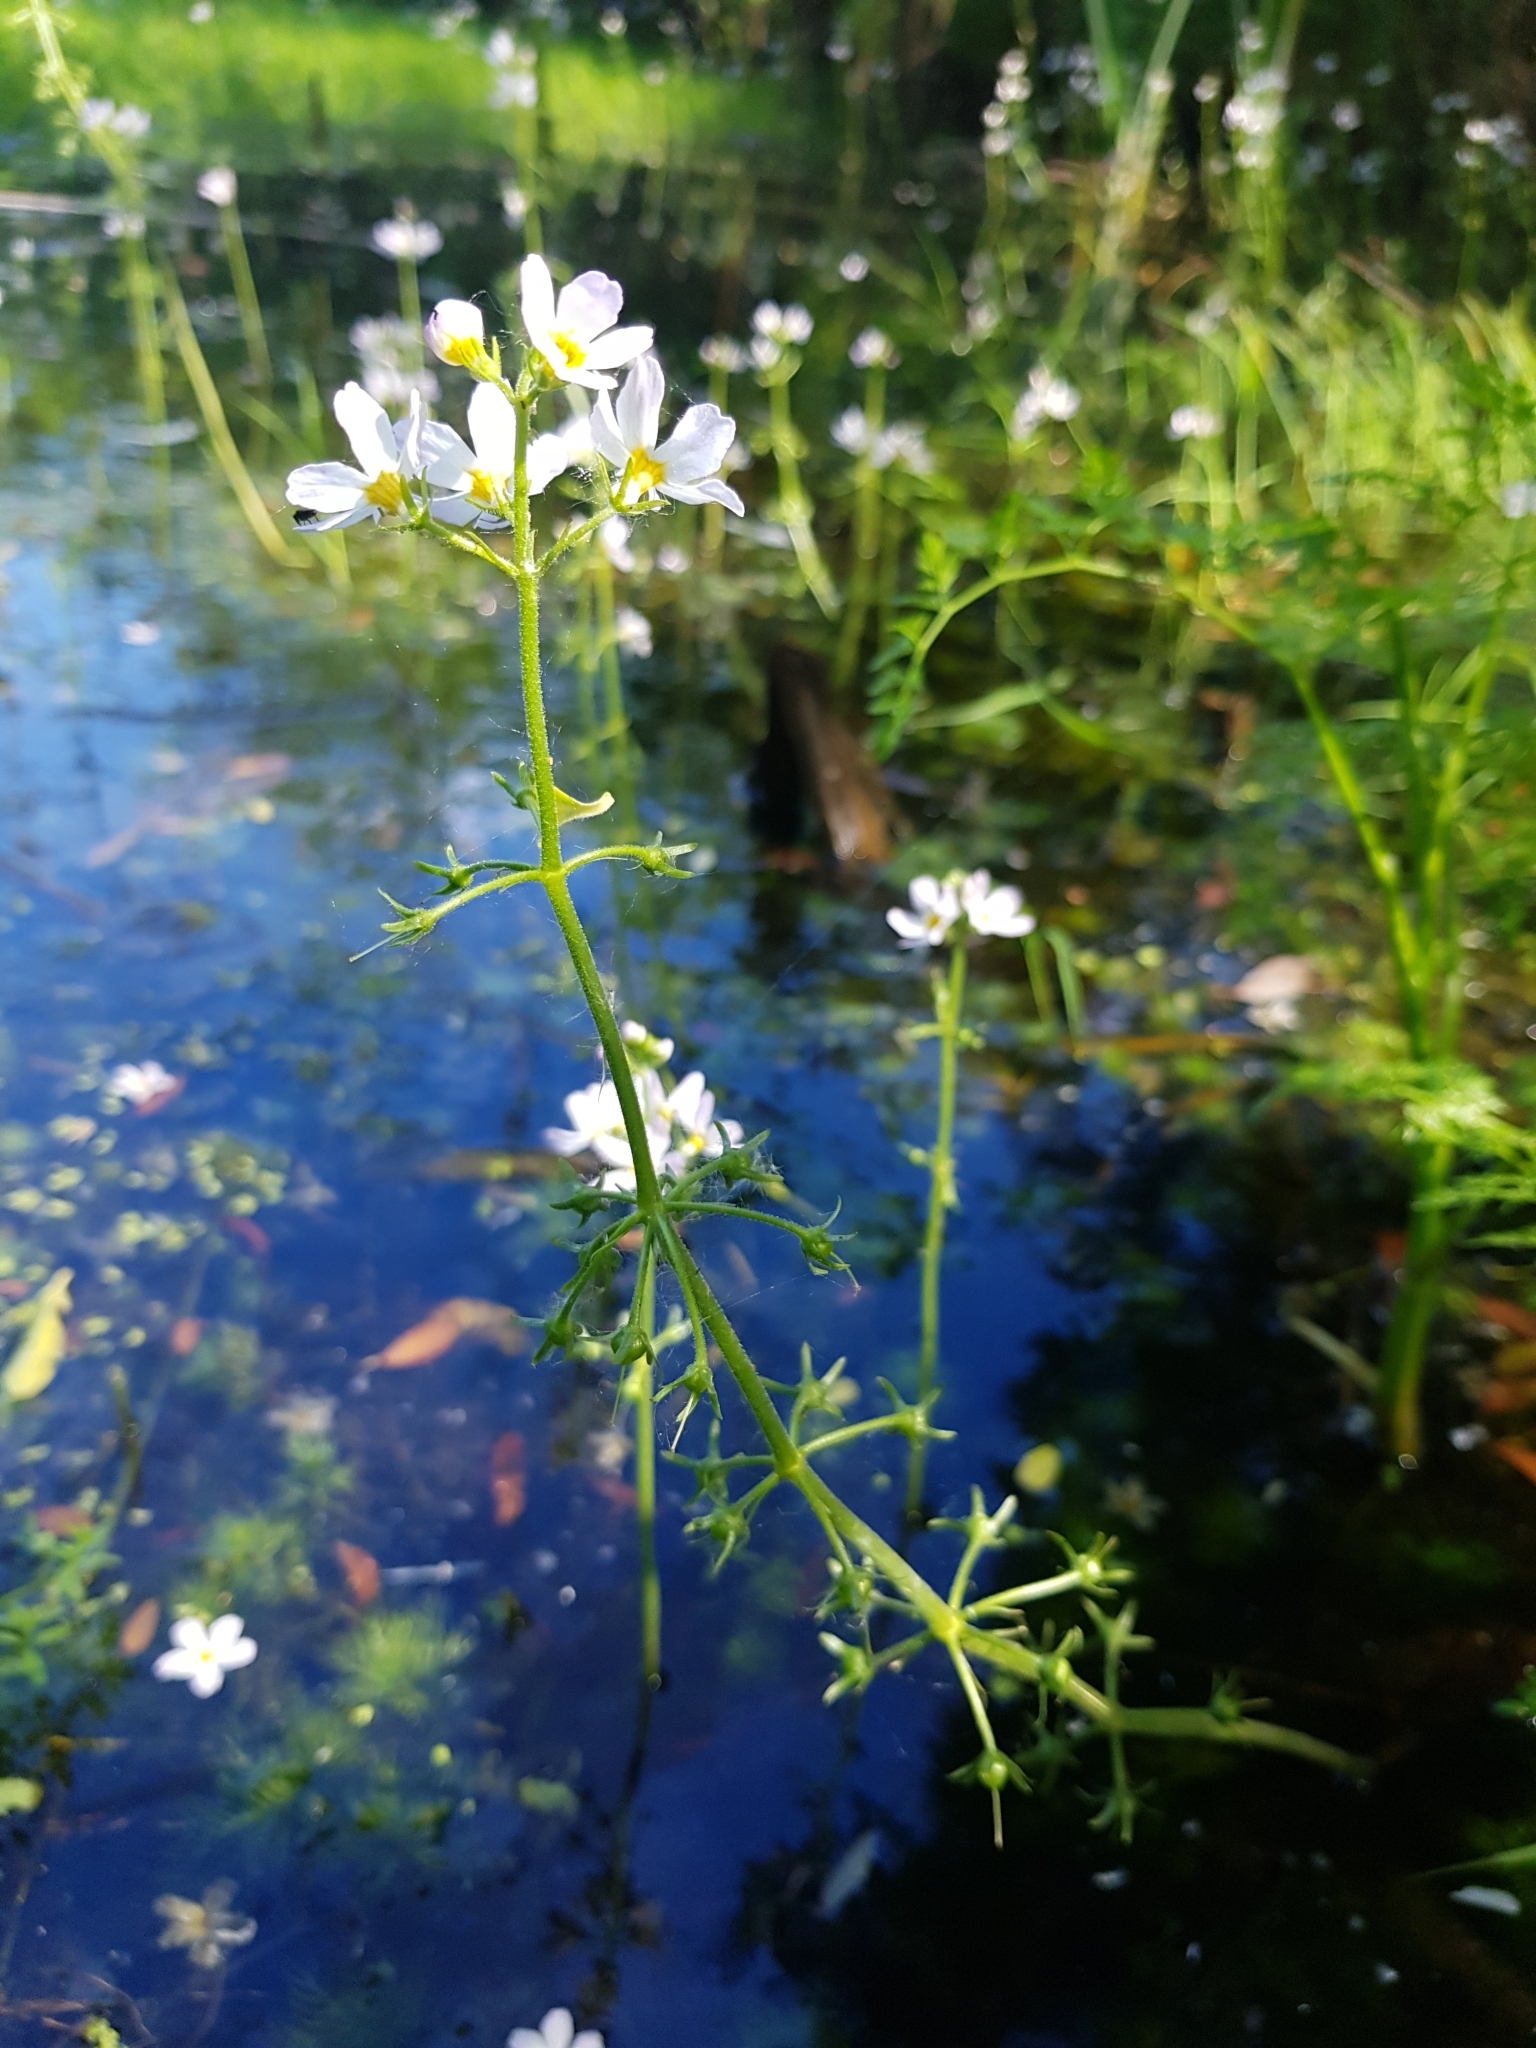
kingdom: Plantae
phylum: Tracheophyta
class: Magnoliopsida
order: Ericales
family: Primulaceae
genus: Hottonia
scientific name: Hottonia palustris
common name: Water-violet
